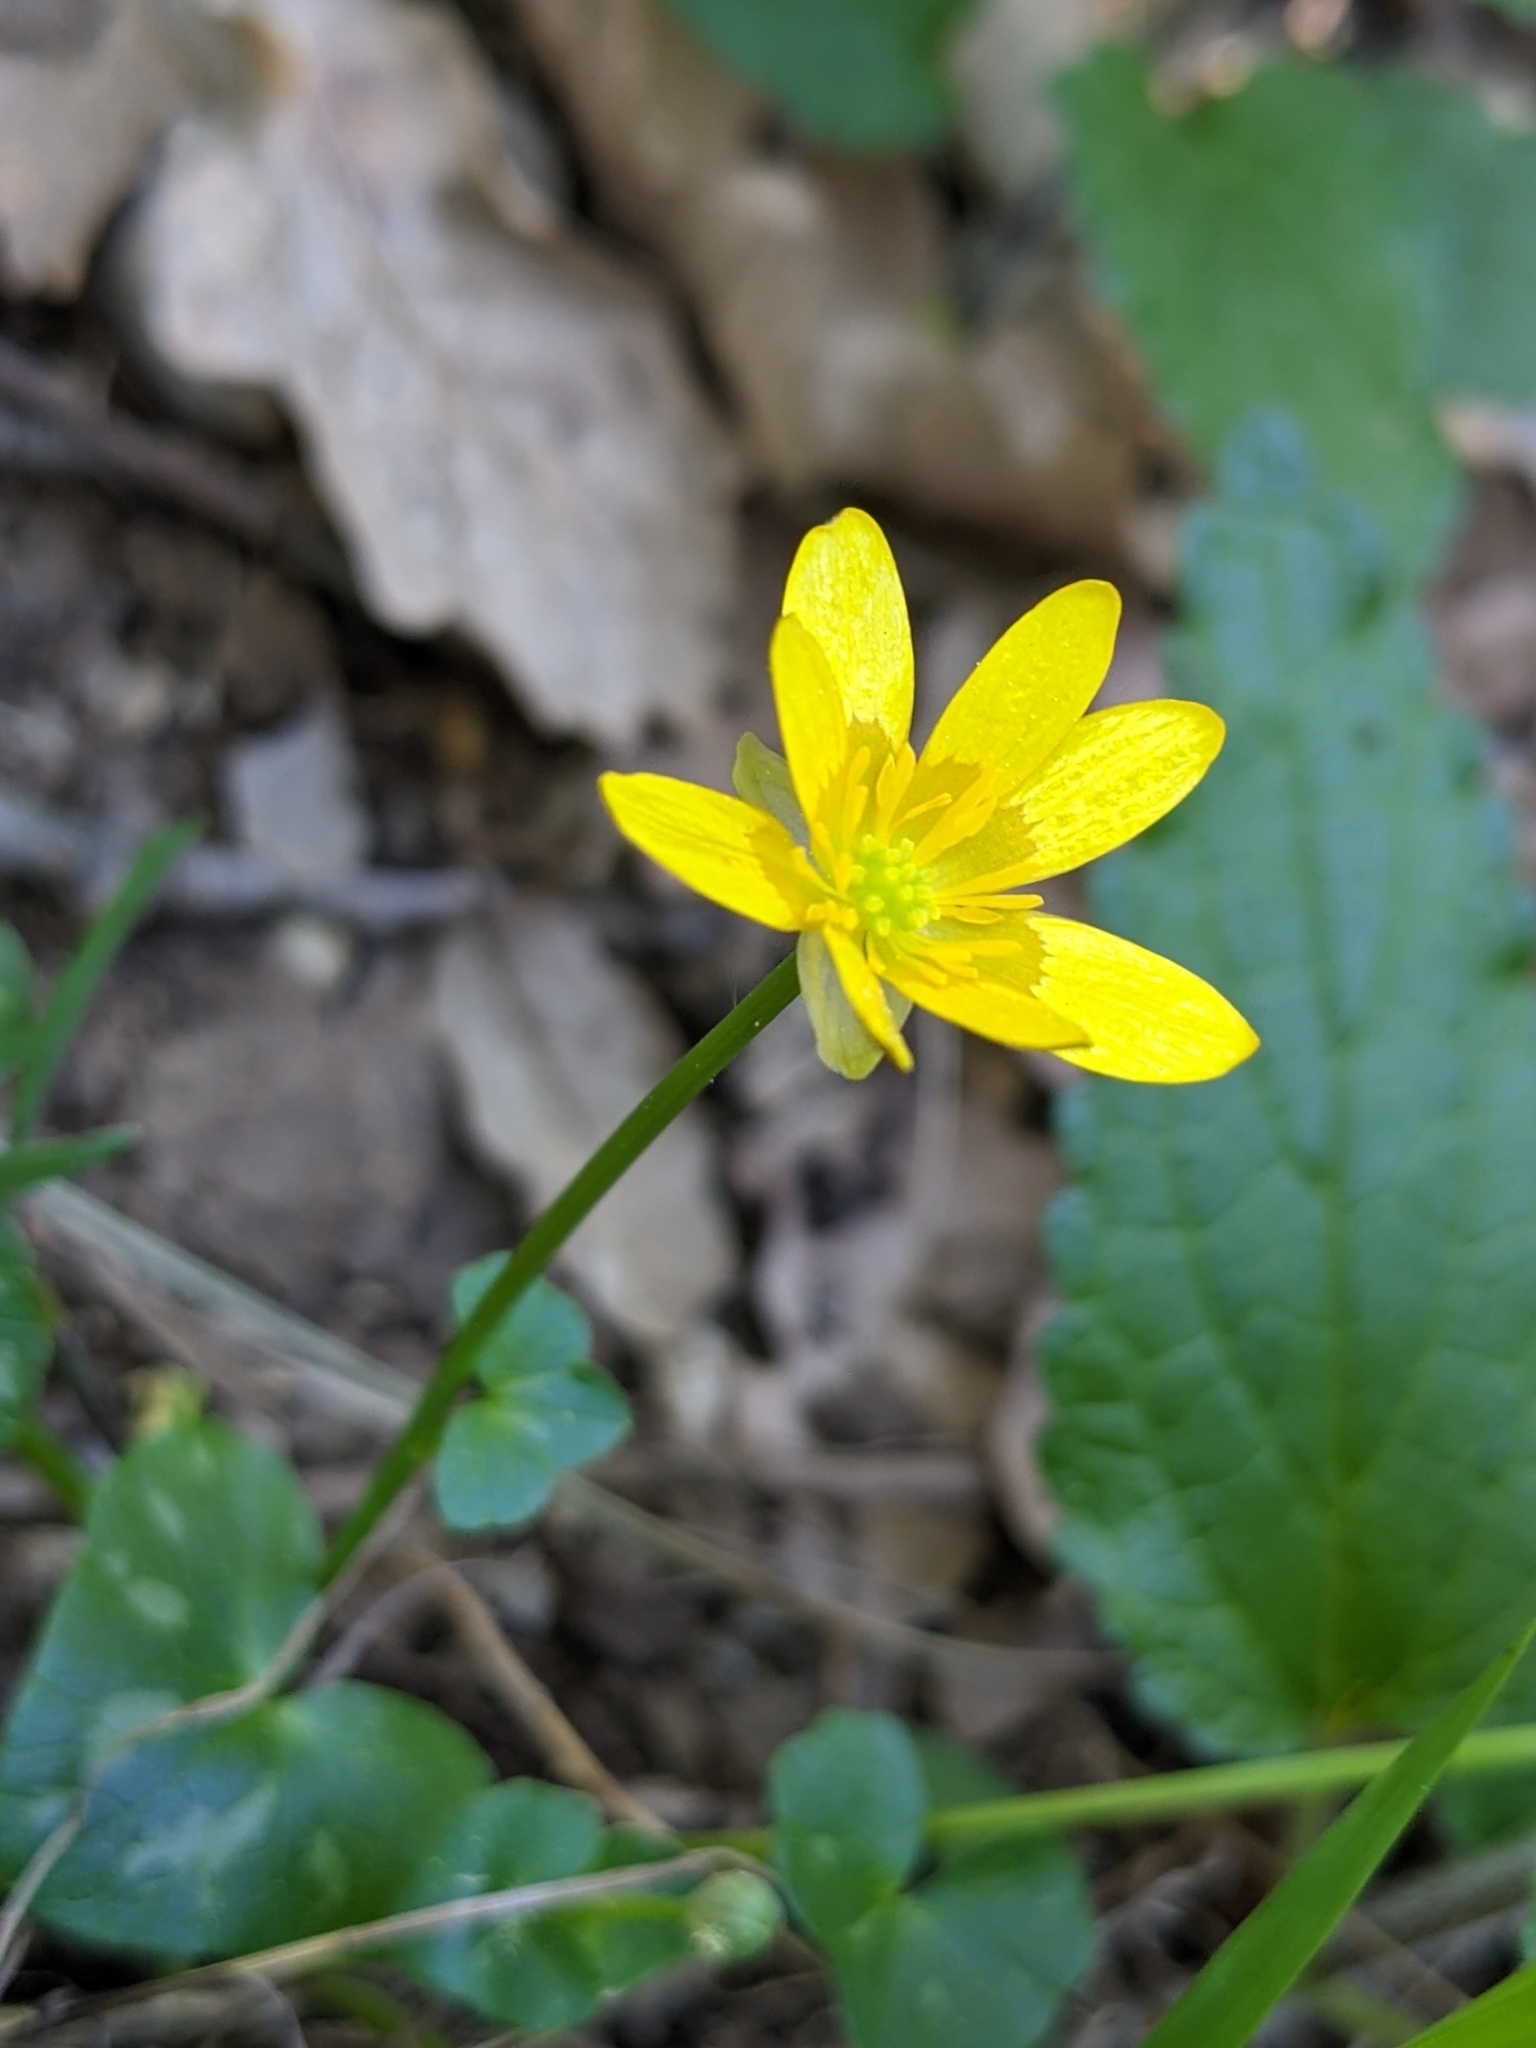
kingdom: Plantae
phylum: Tracheophyta
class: Magnoliopsida
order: Ranunculales
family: Ranunculaceae
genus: Ficaria
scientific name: Ficaria verna
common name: Lesser celandine
